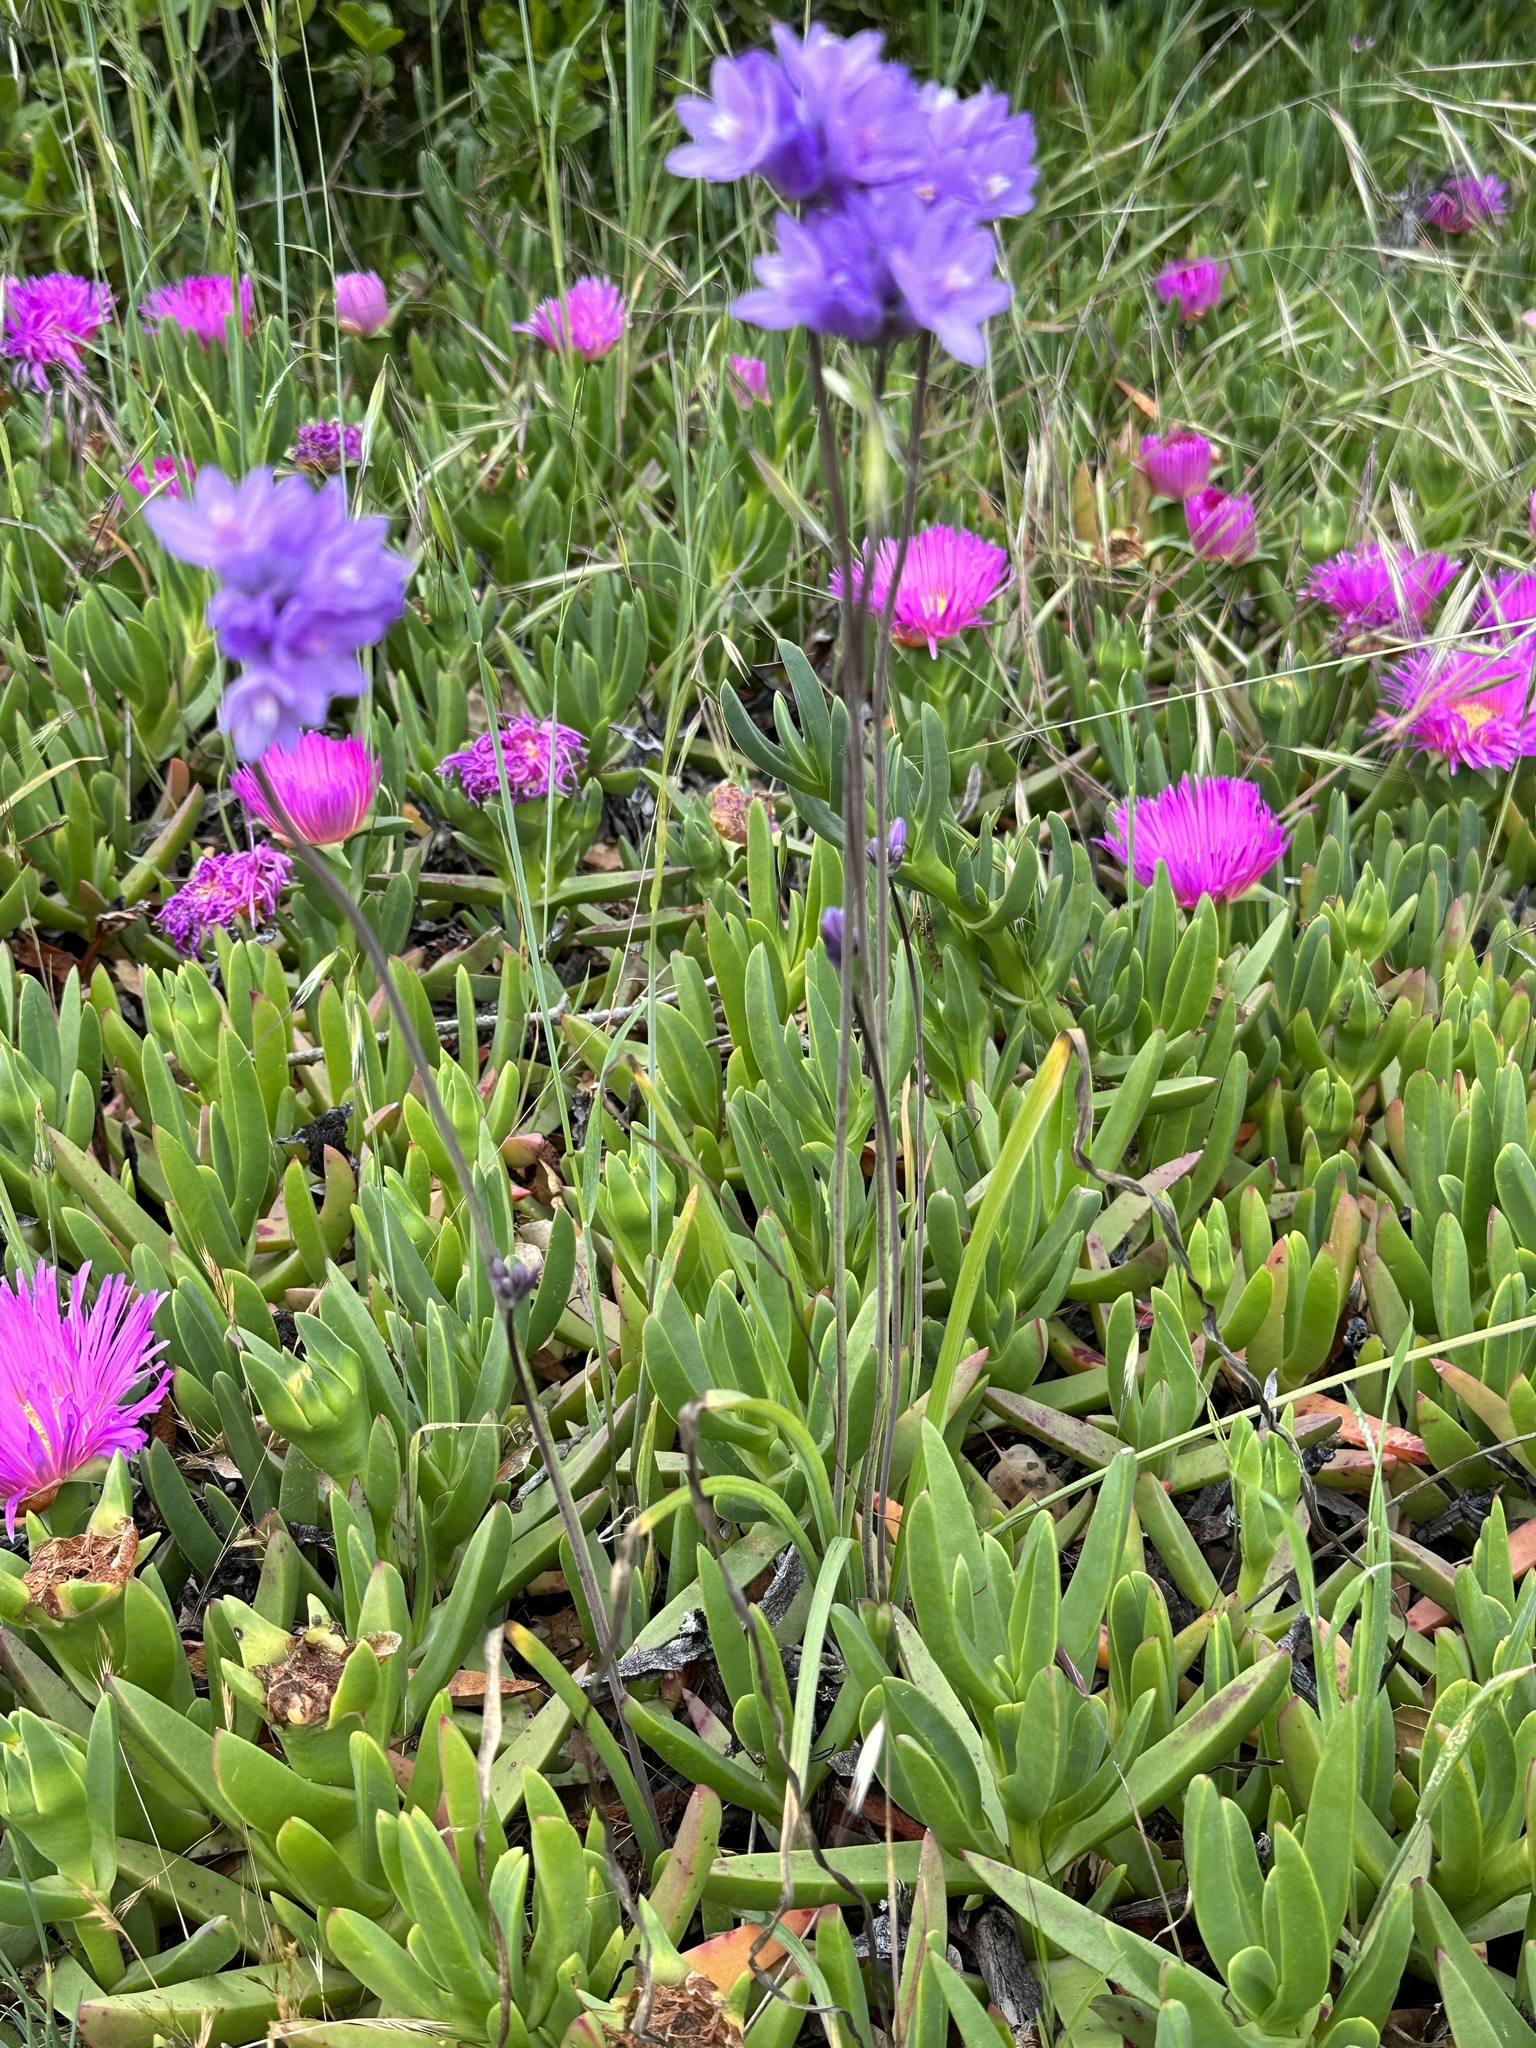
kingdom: Plantae
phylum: Tracheophyta
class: Liliopsida
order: Asparagales
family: Asparagaceae
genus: Dipterostemon
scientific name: Dipterostemon capitatus
